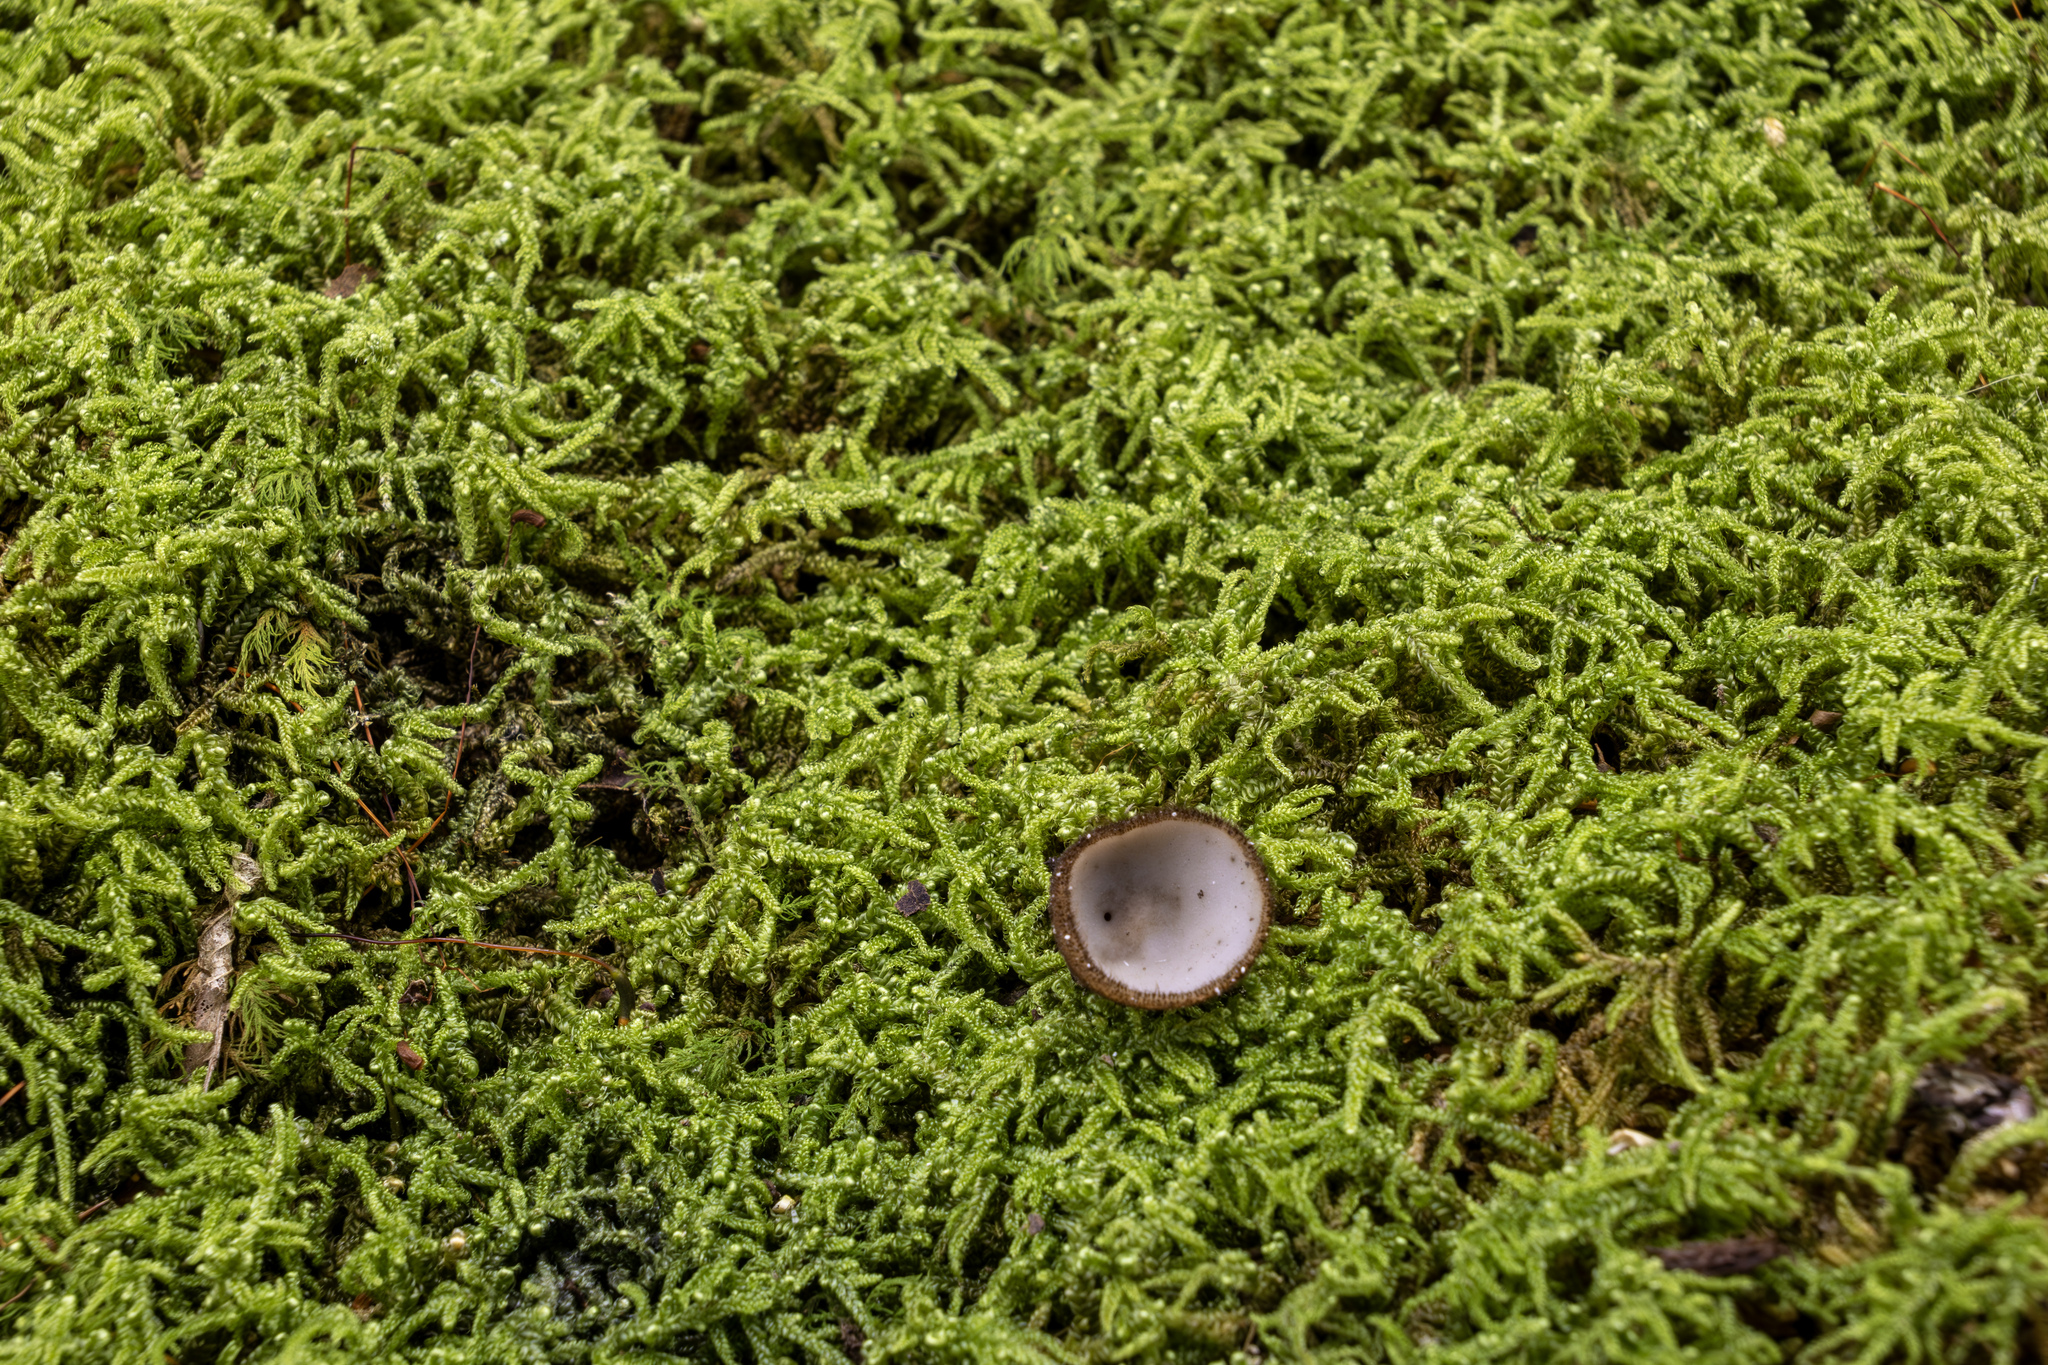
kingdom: Fungi
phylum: Ascomycota
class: Pezizomycetes
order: Pezizales
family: Pyronemataceae
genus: Humaria
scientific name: Humaria hemisphaerica
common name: Glazed cup
